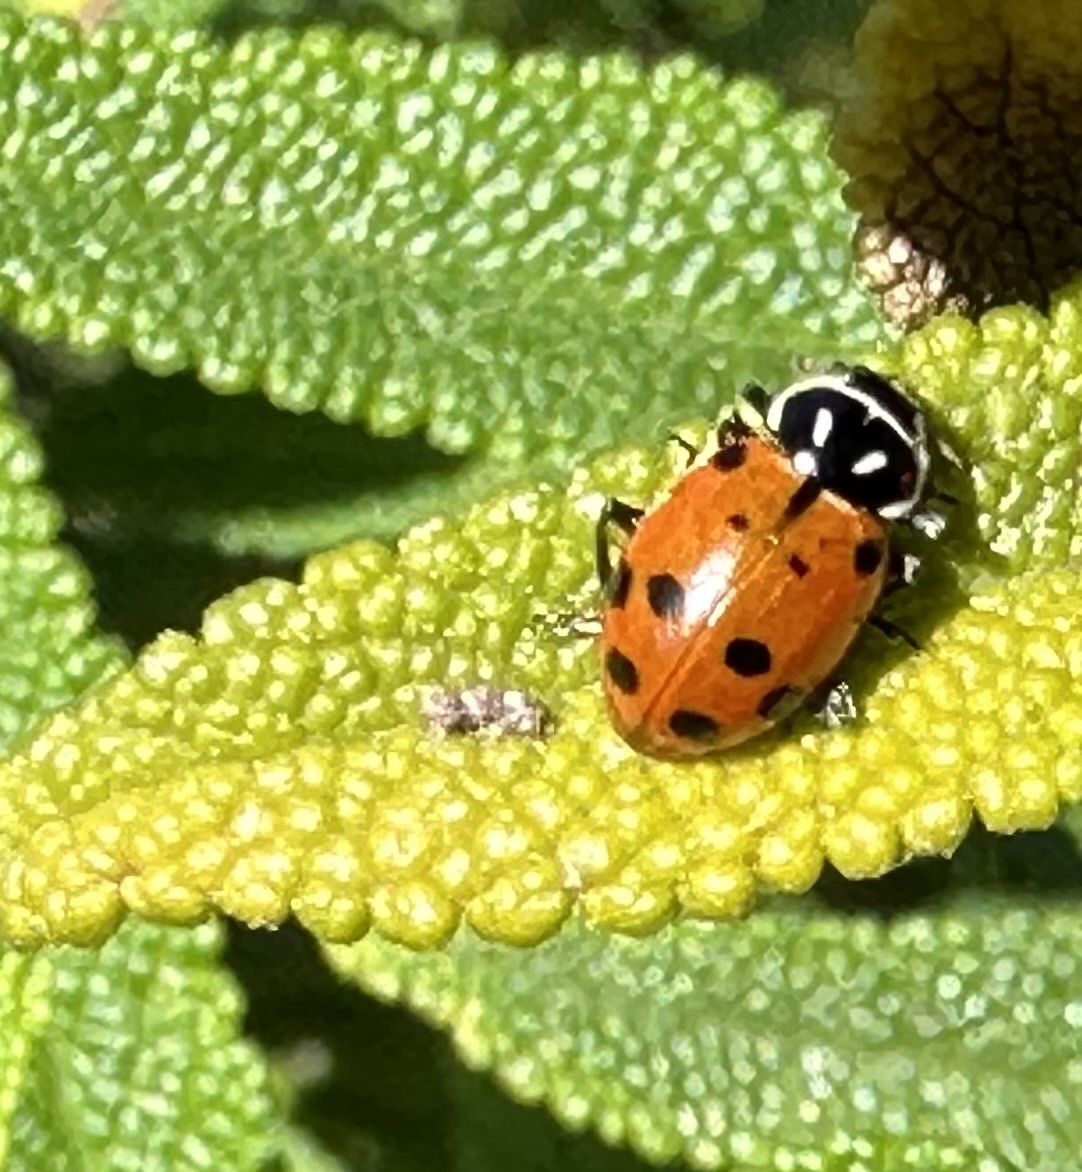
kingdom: Animalia
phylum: Arthropoda
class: Insecta
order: Coleoptera
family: Coccinellidae
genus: Hippodamia
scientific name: Hippodamia convergens
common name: Convergent lady beetle
